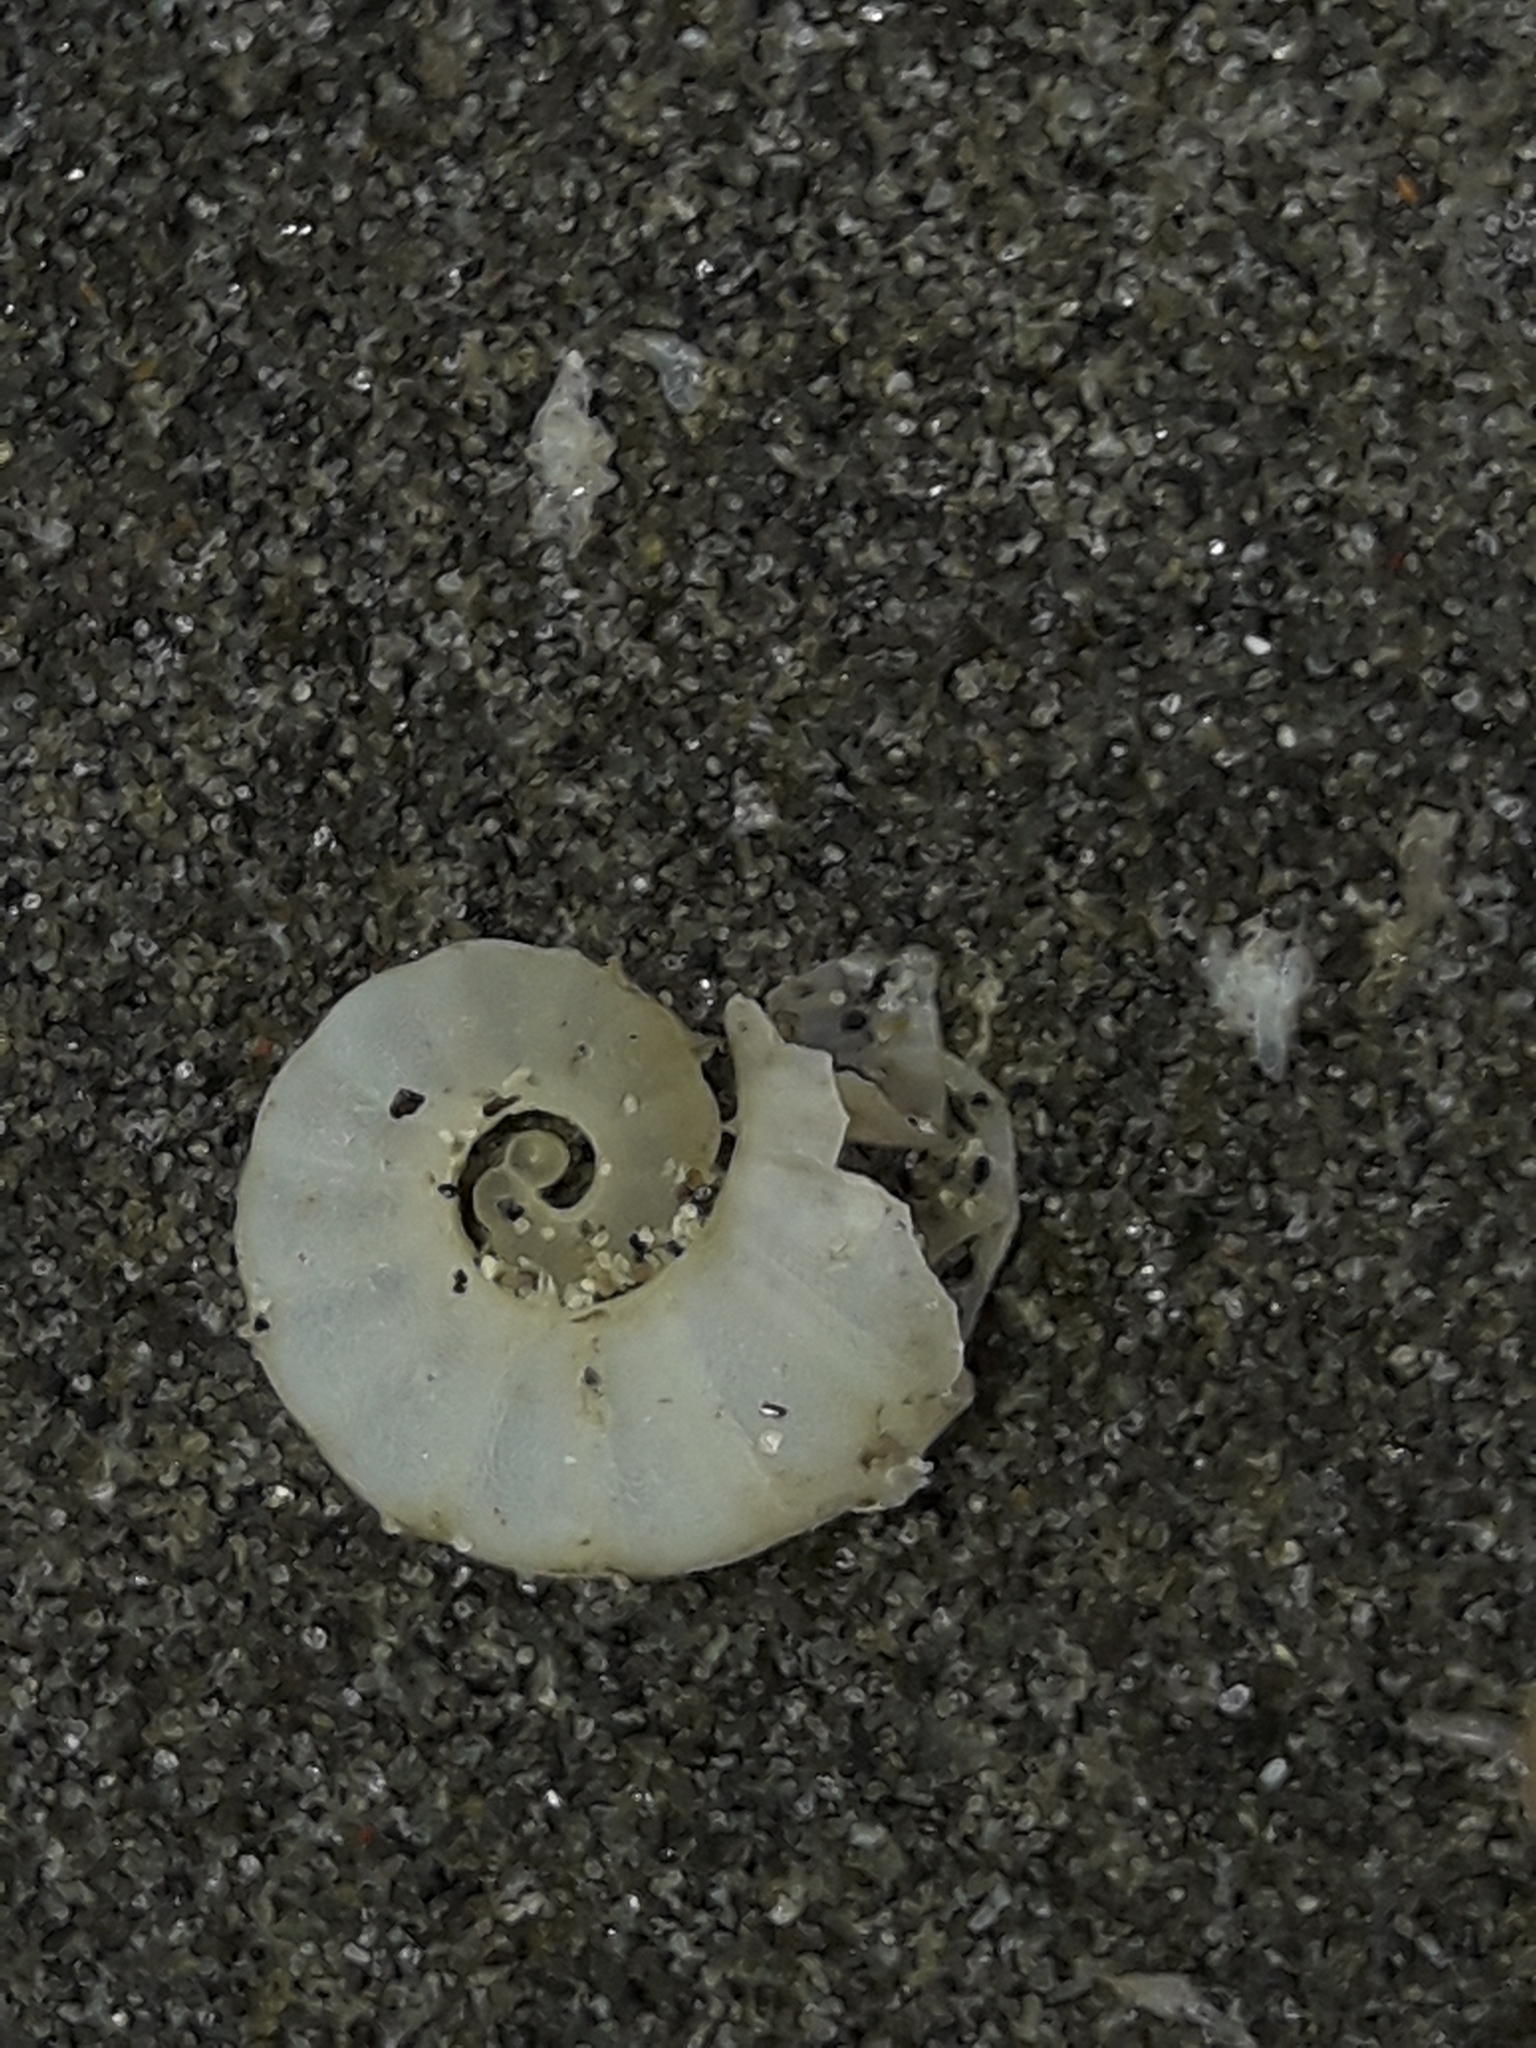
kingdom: Animalia
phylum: Mollusca
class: Cephalopoda
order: Spirulida
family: Spirulidae
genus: Spirula
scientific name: Spirula spirula
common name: Ram's horn squid
